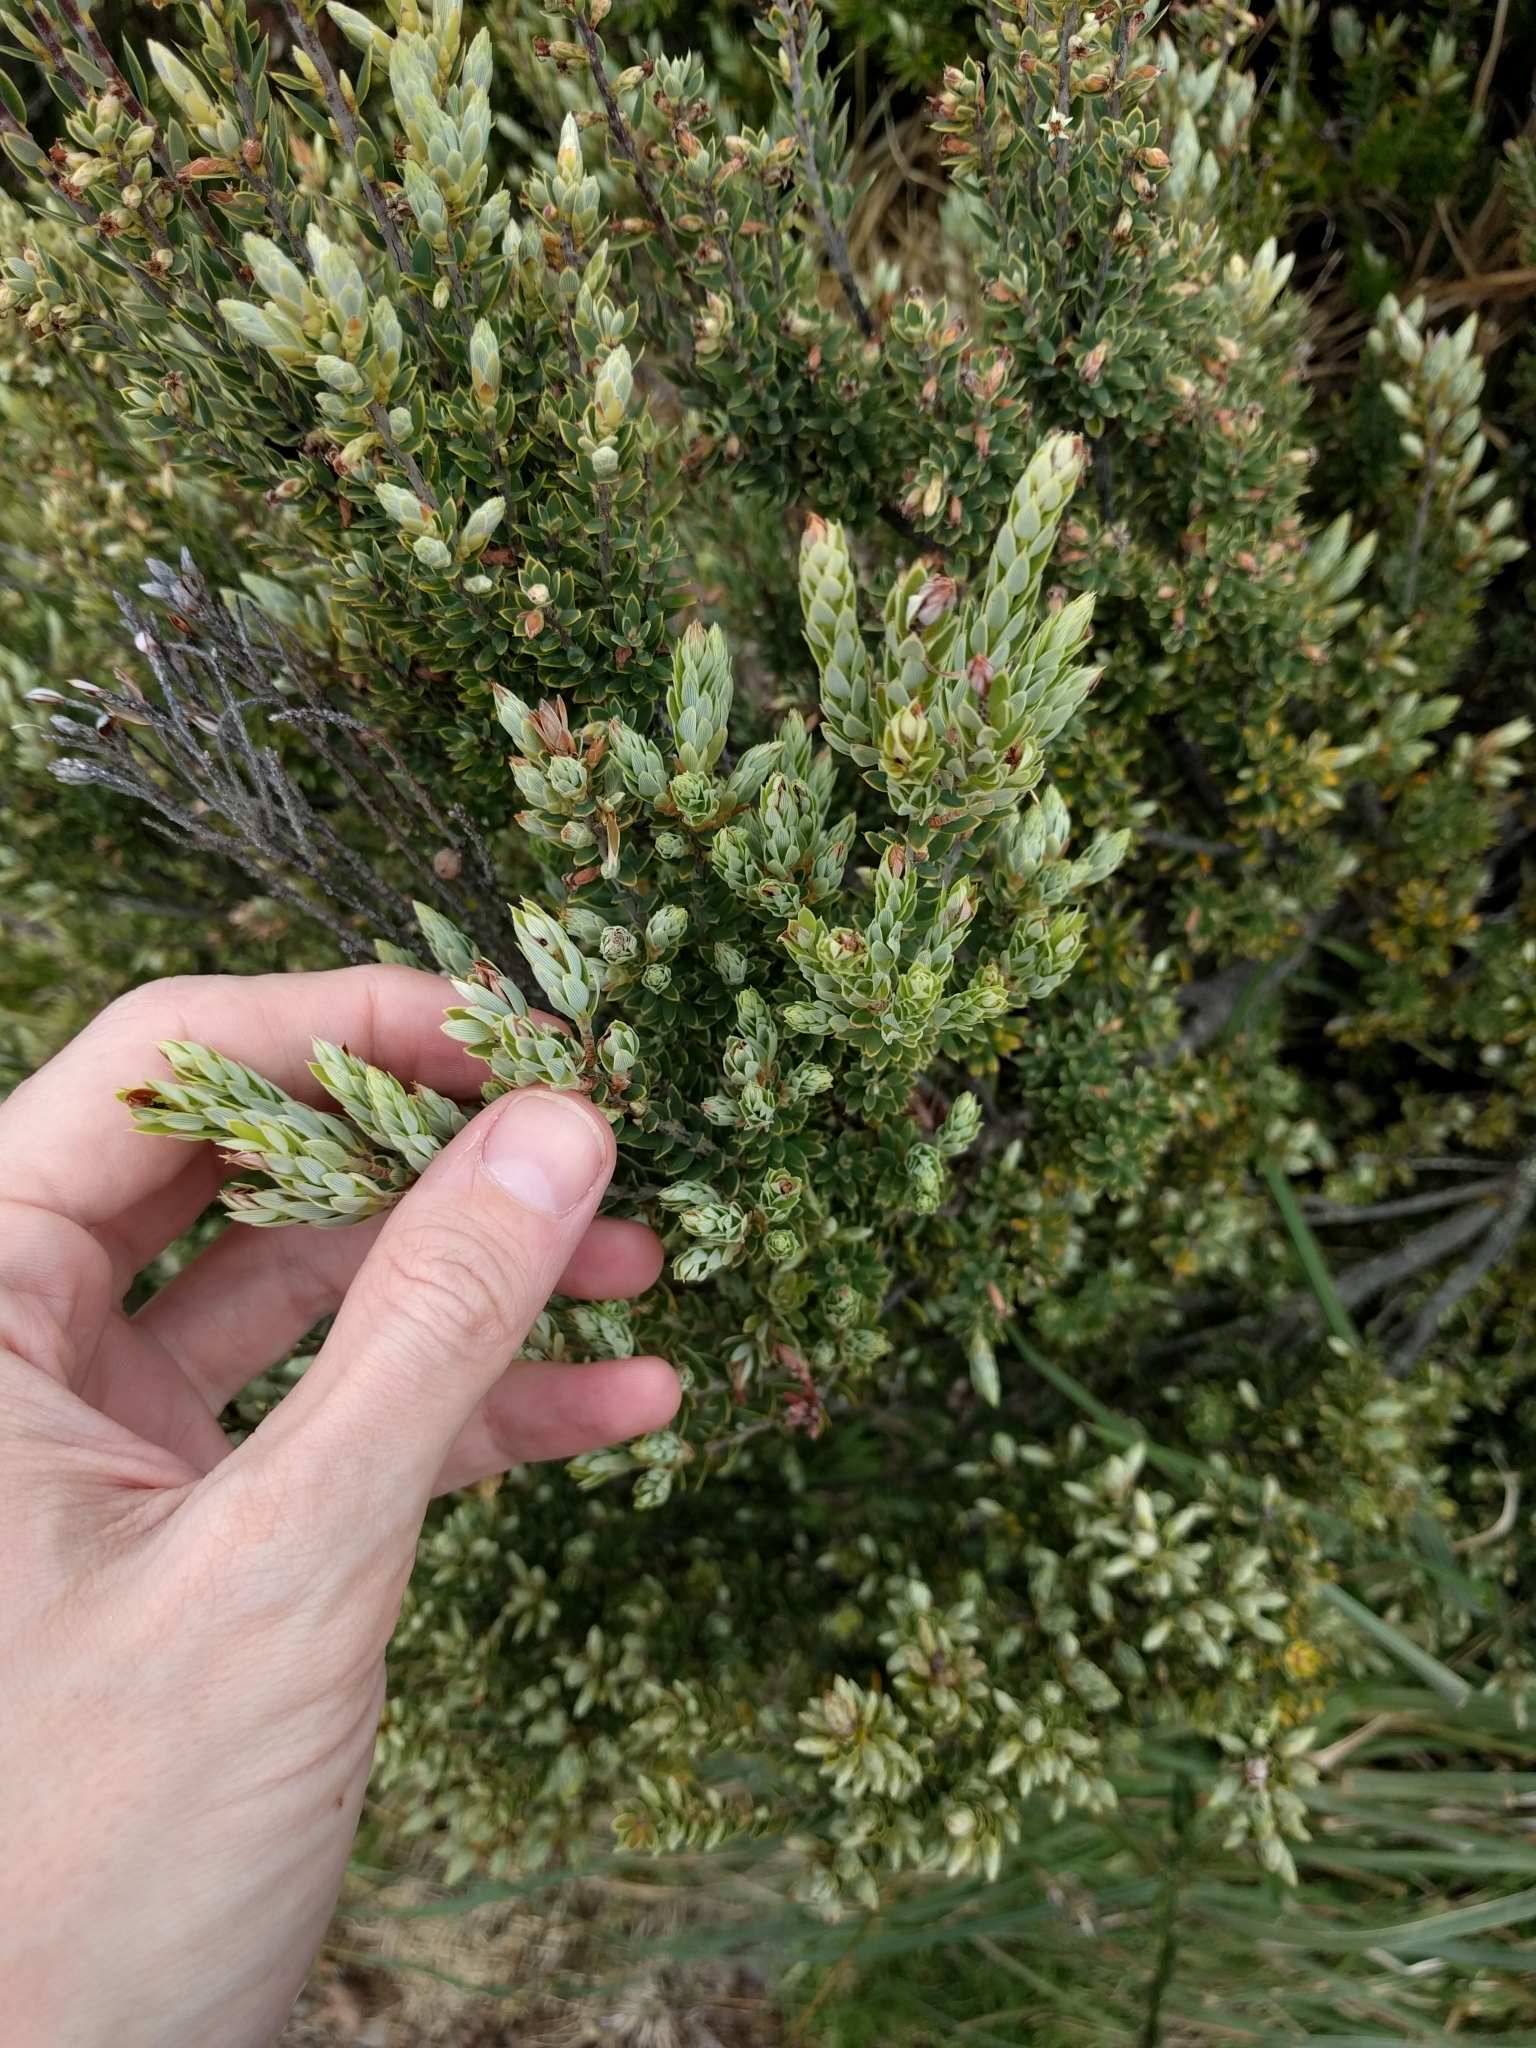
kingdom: Plantae
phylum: Tracheophyta
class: Magnoliopsida
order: Ericales
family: Ericaceae
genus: Leptecophylla
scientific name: Leptecophylla tameiameiae
